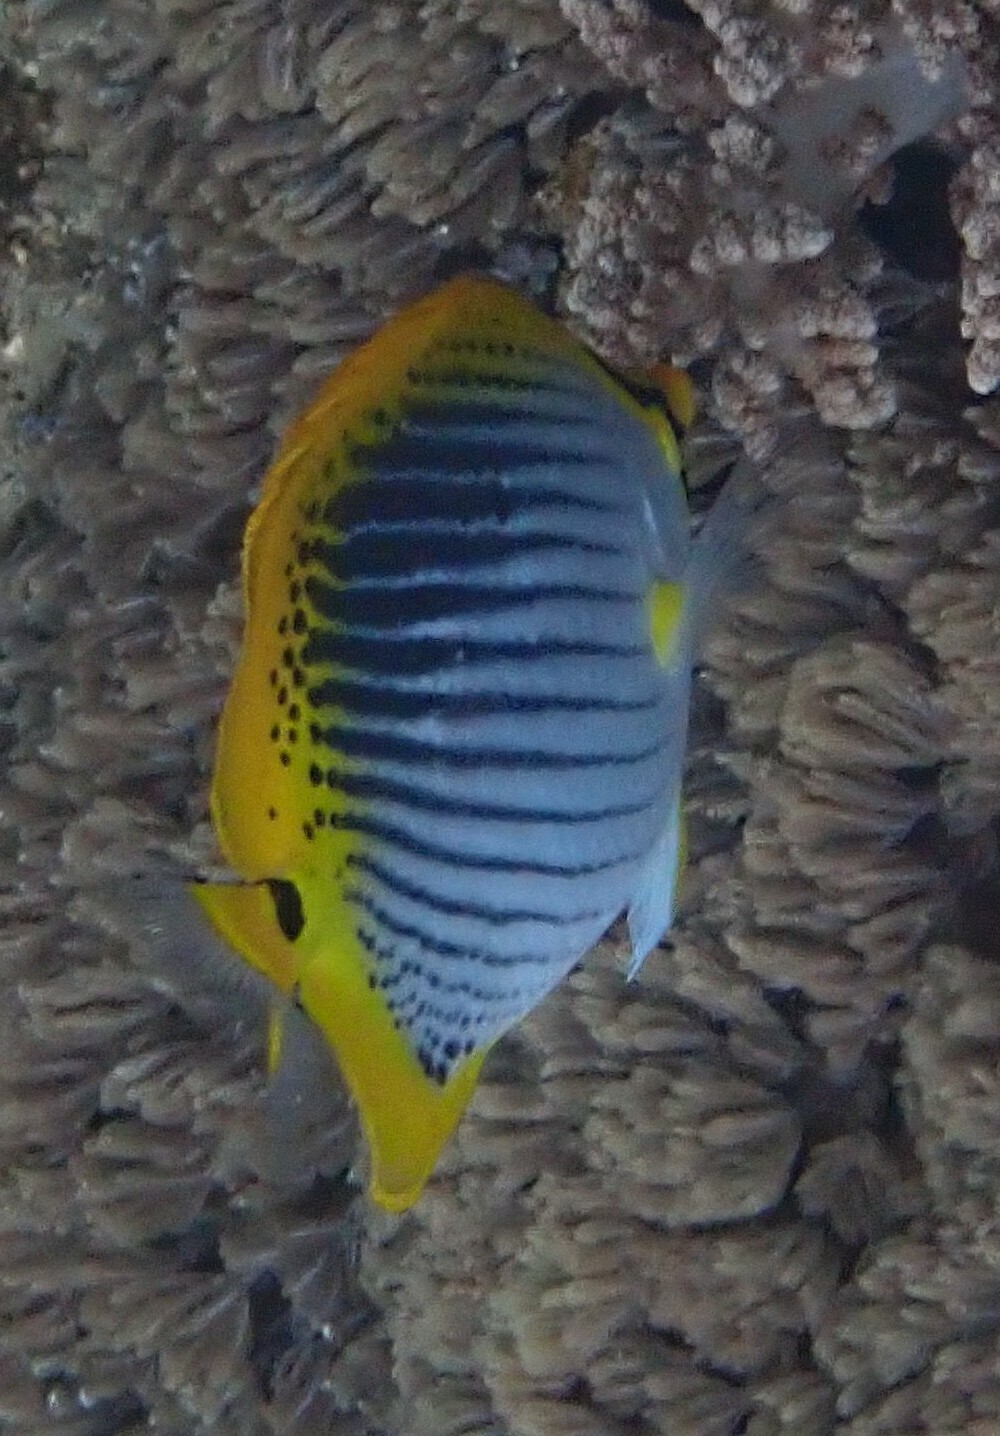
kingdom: Animalia
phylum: Chordata
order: Perciformes
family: Chaetodontidae
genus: Chaetodon
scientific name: Chaetodon ocellicaudus
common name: Spot-tail butterflyfish
